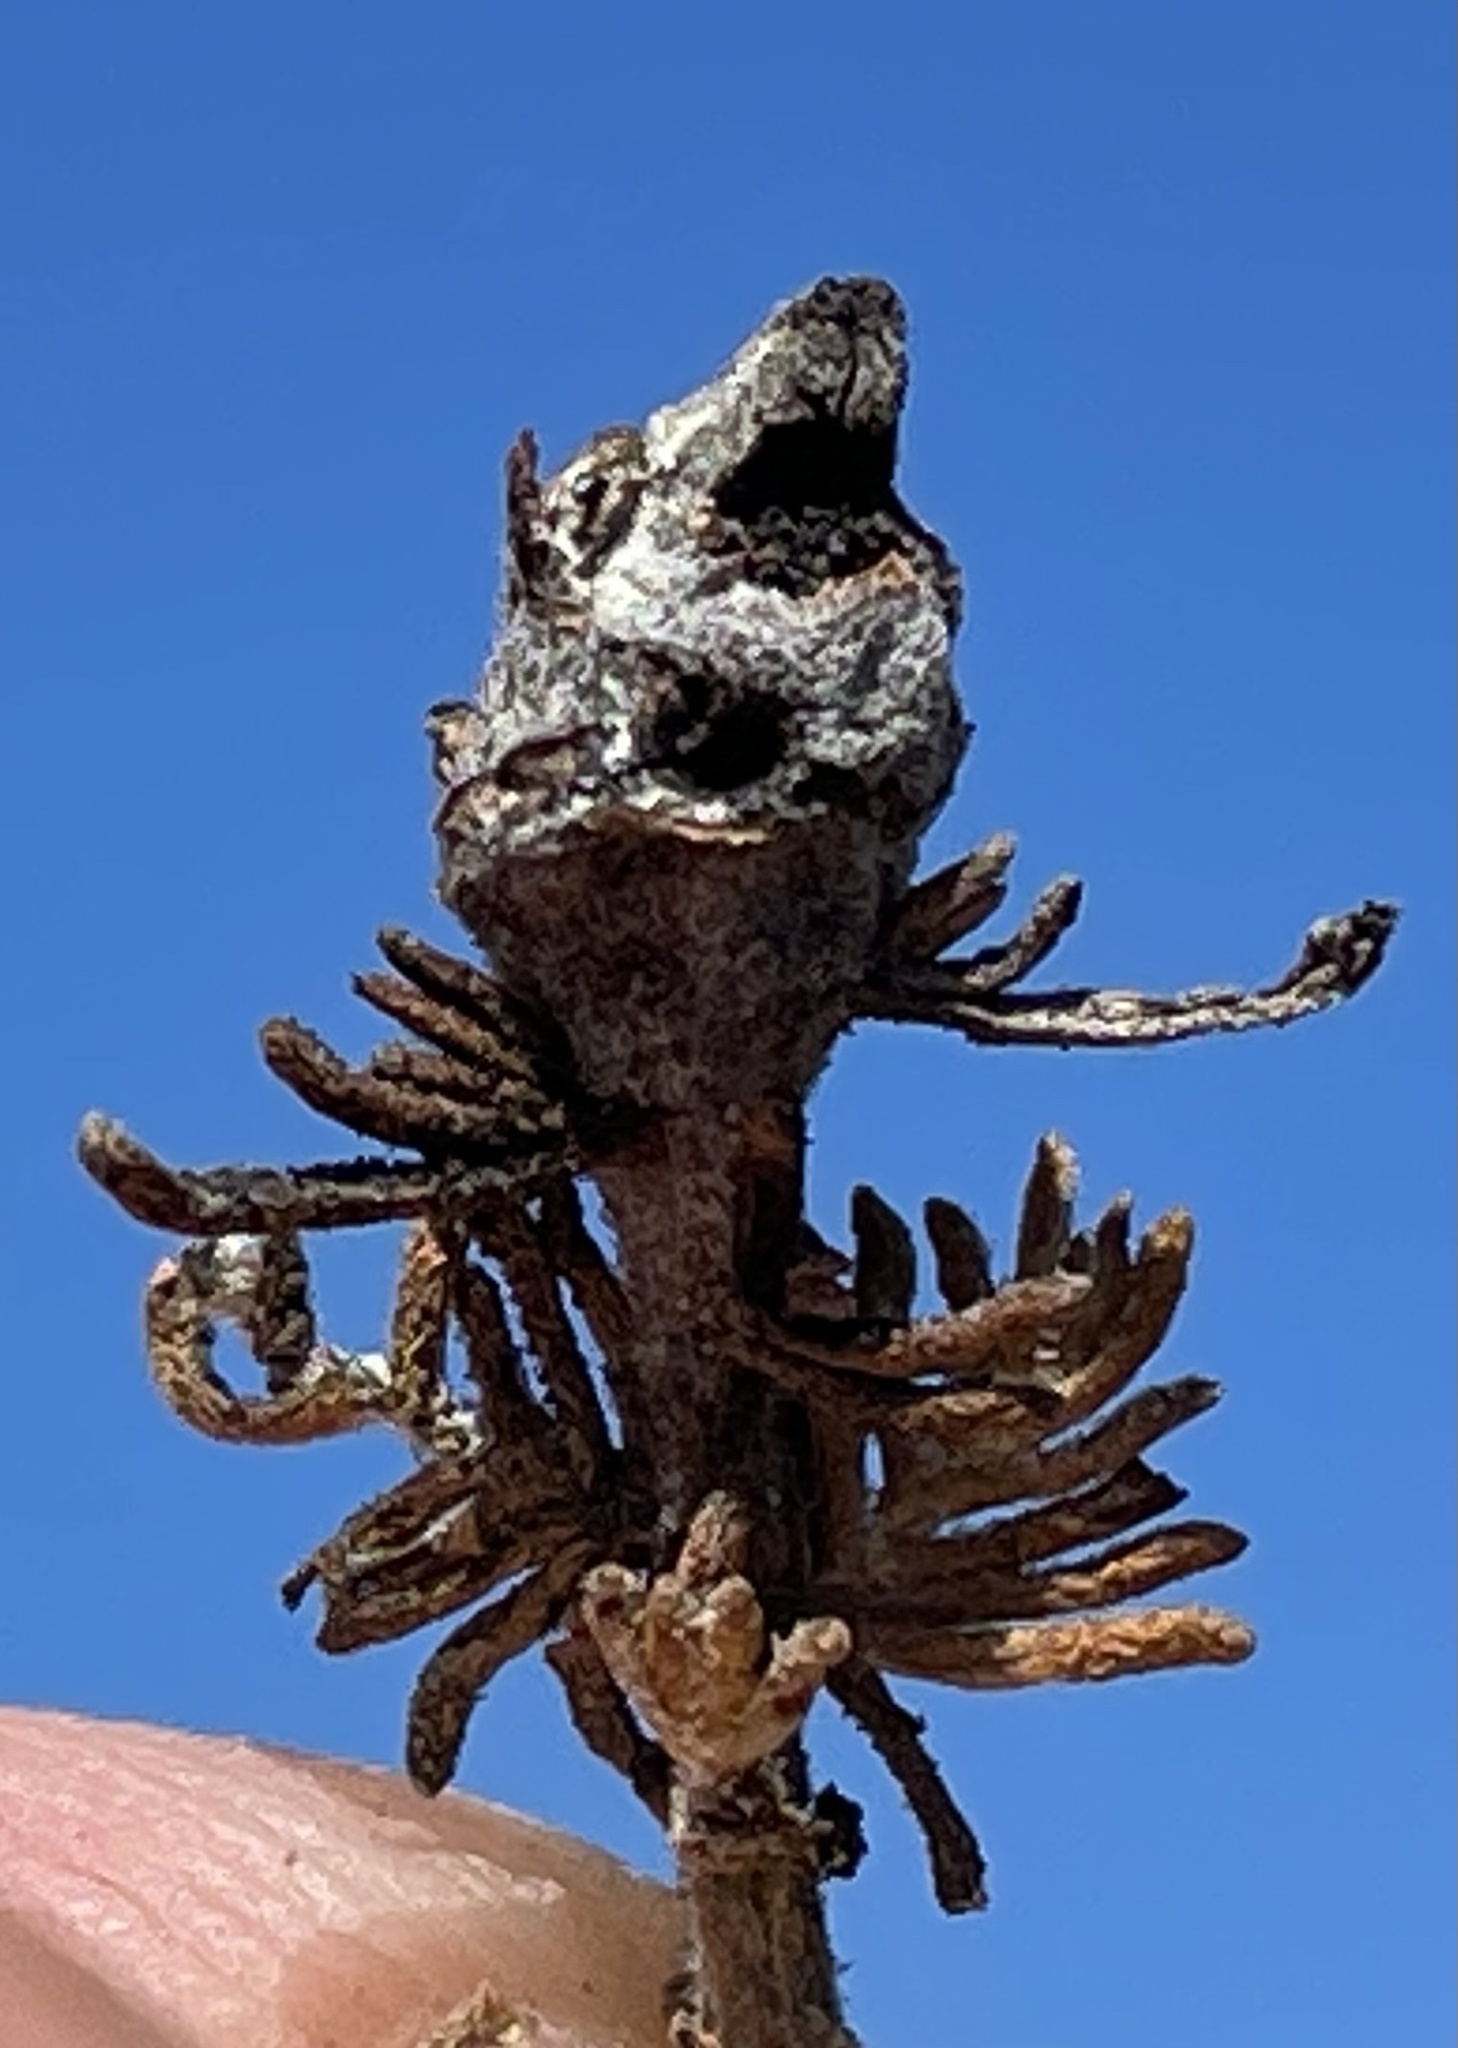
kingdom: Animalia
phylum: Arthropoda
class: Insecta
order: Diptera
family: Cecidomyiidae
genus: Prodiplosis
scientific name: Prodiplosis falcata
